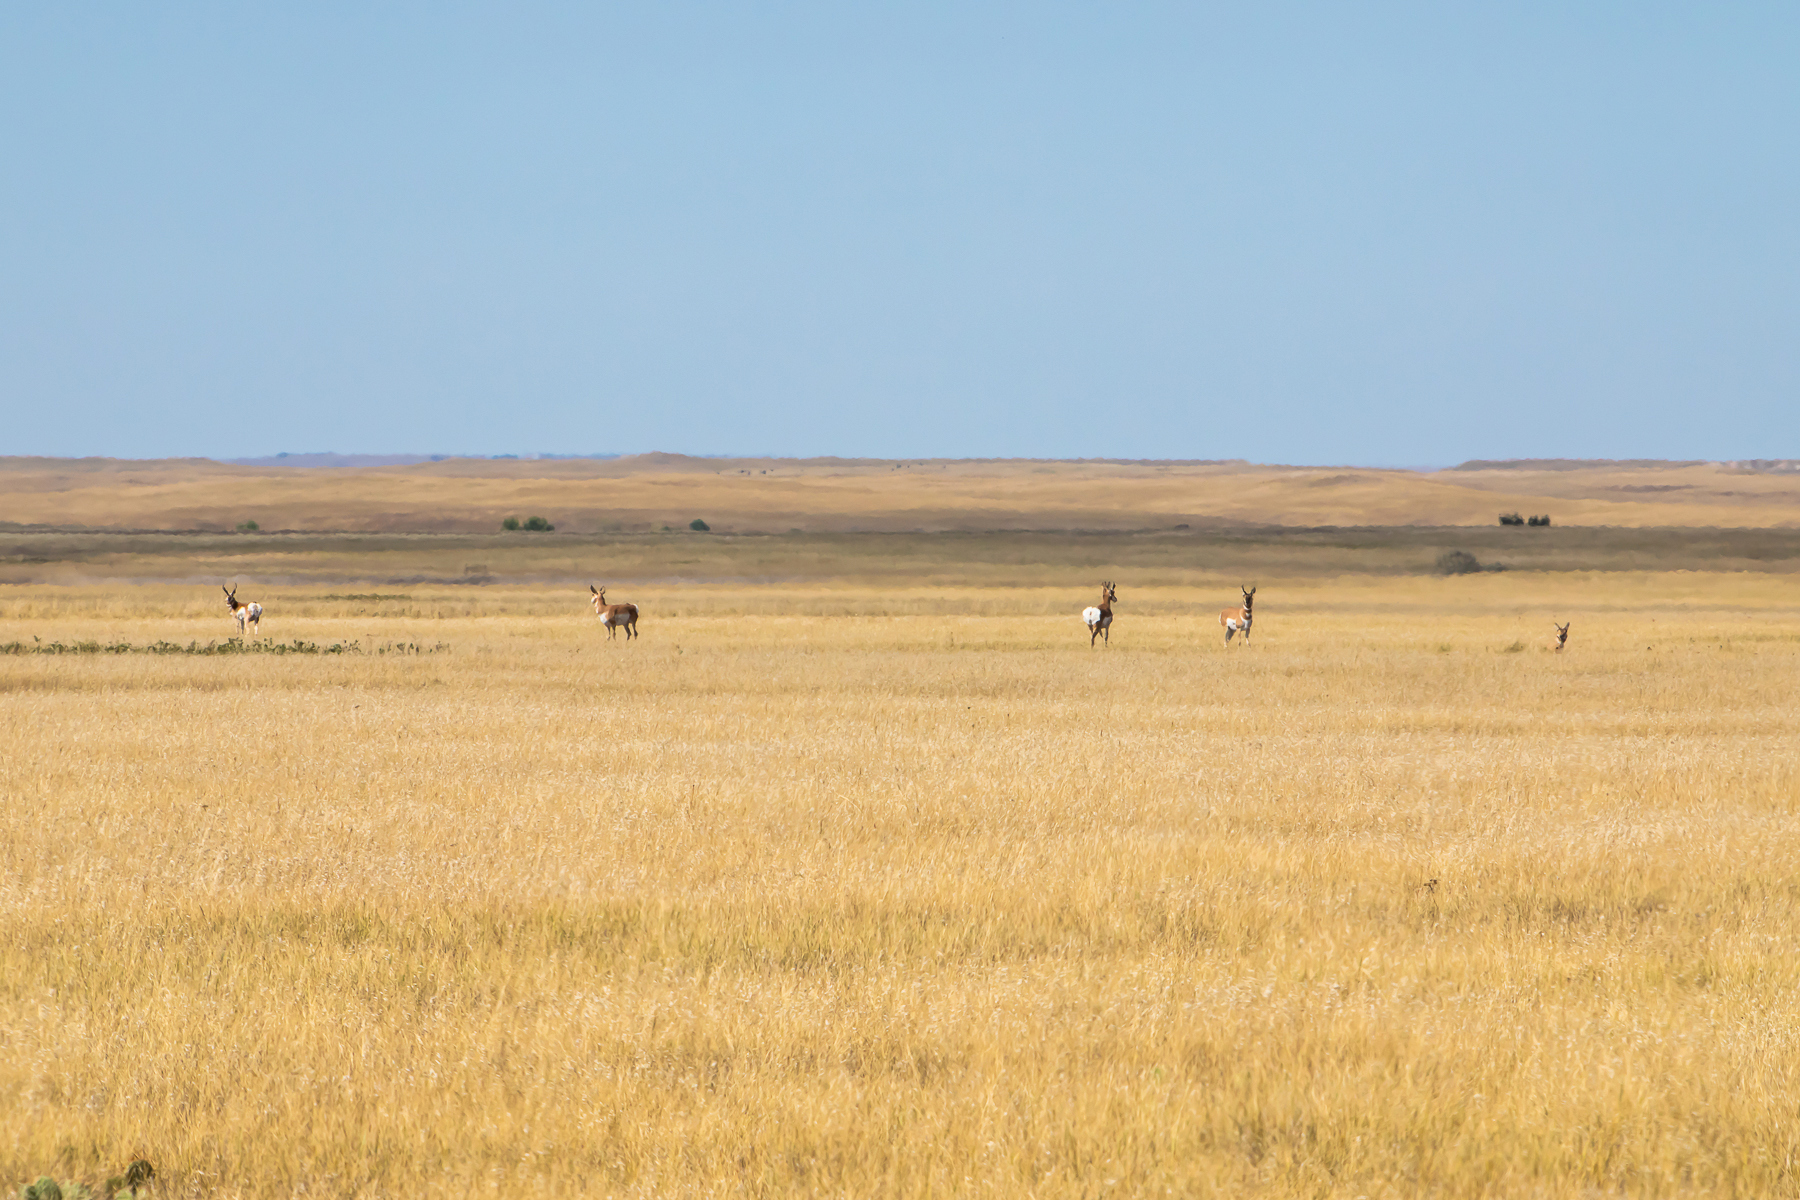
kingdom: Animalia
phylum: Chordata
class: Mammalia
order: Artiodactyla
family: Antilocapridae
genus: Antilocapra
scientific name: Antilocapra americana
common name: Pronghorn
